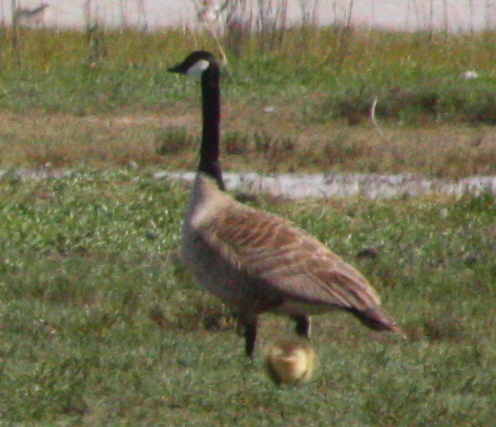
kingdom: Animalia
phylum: Chordata
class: Aves
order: Anseriformes
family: Anatidae
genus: Branta
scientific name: Branta canadensis
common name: Canada goose
